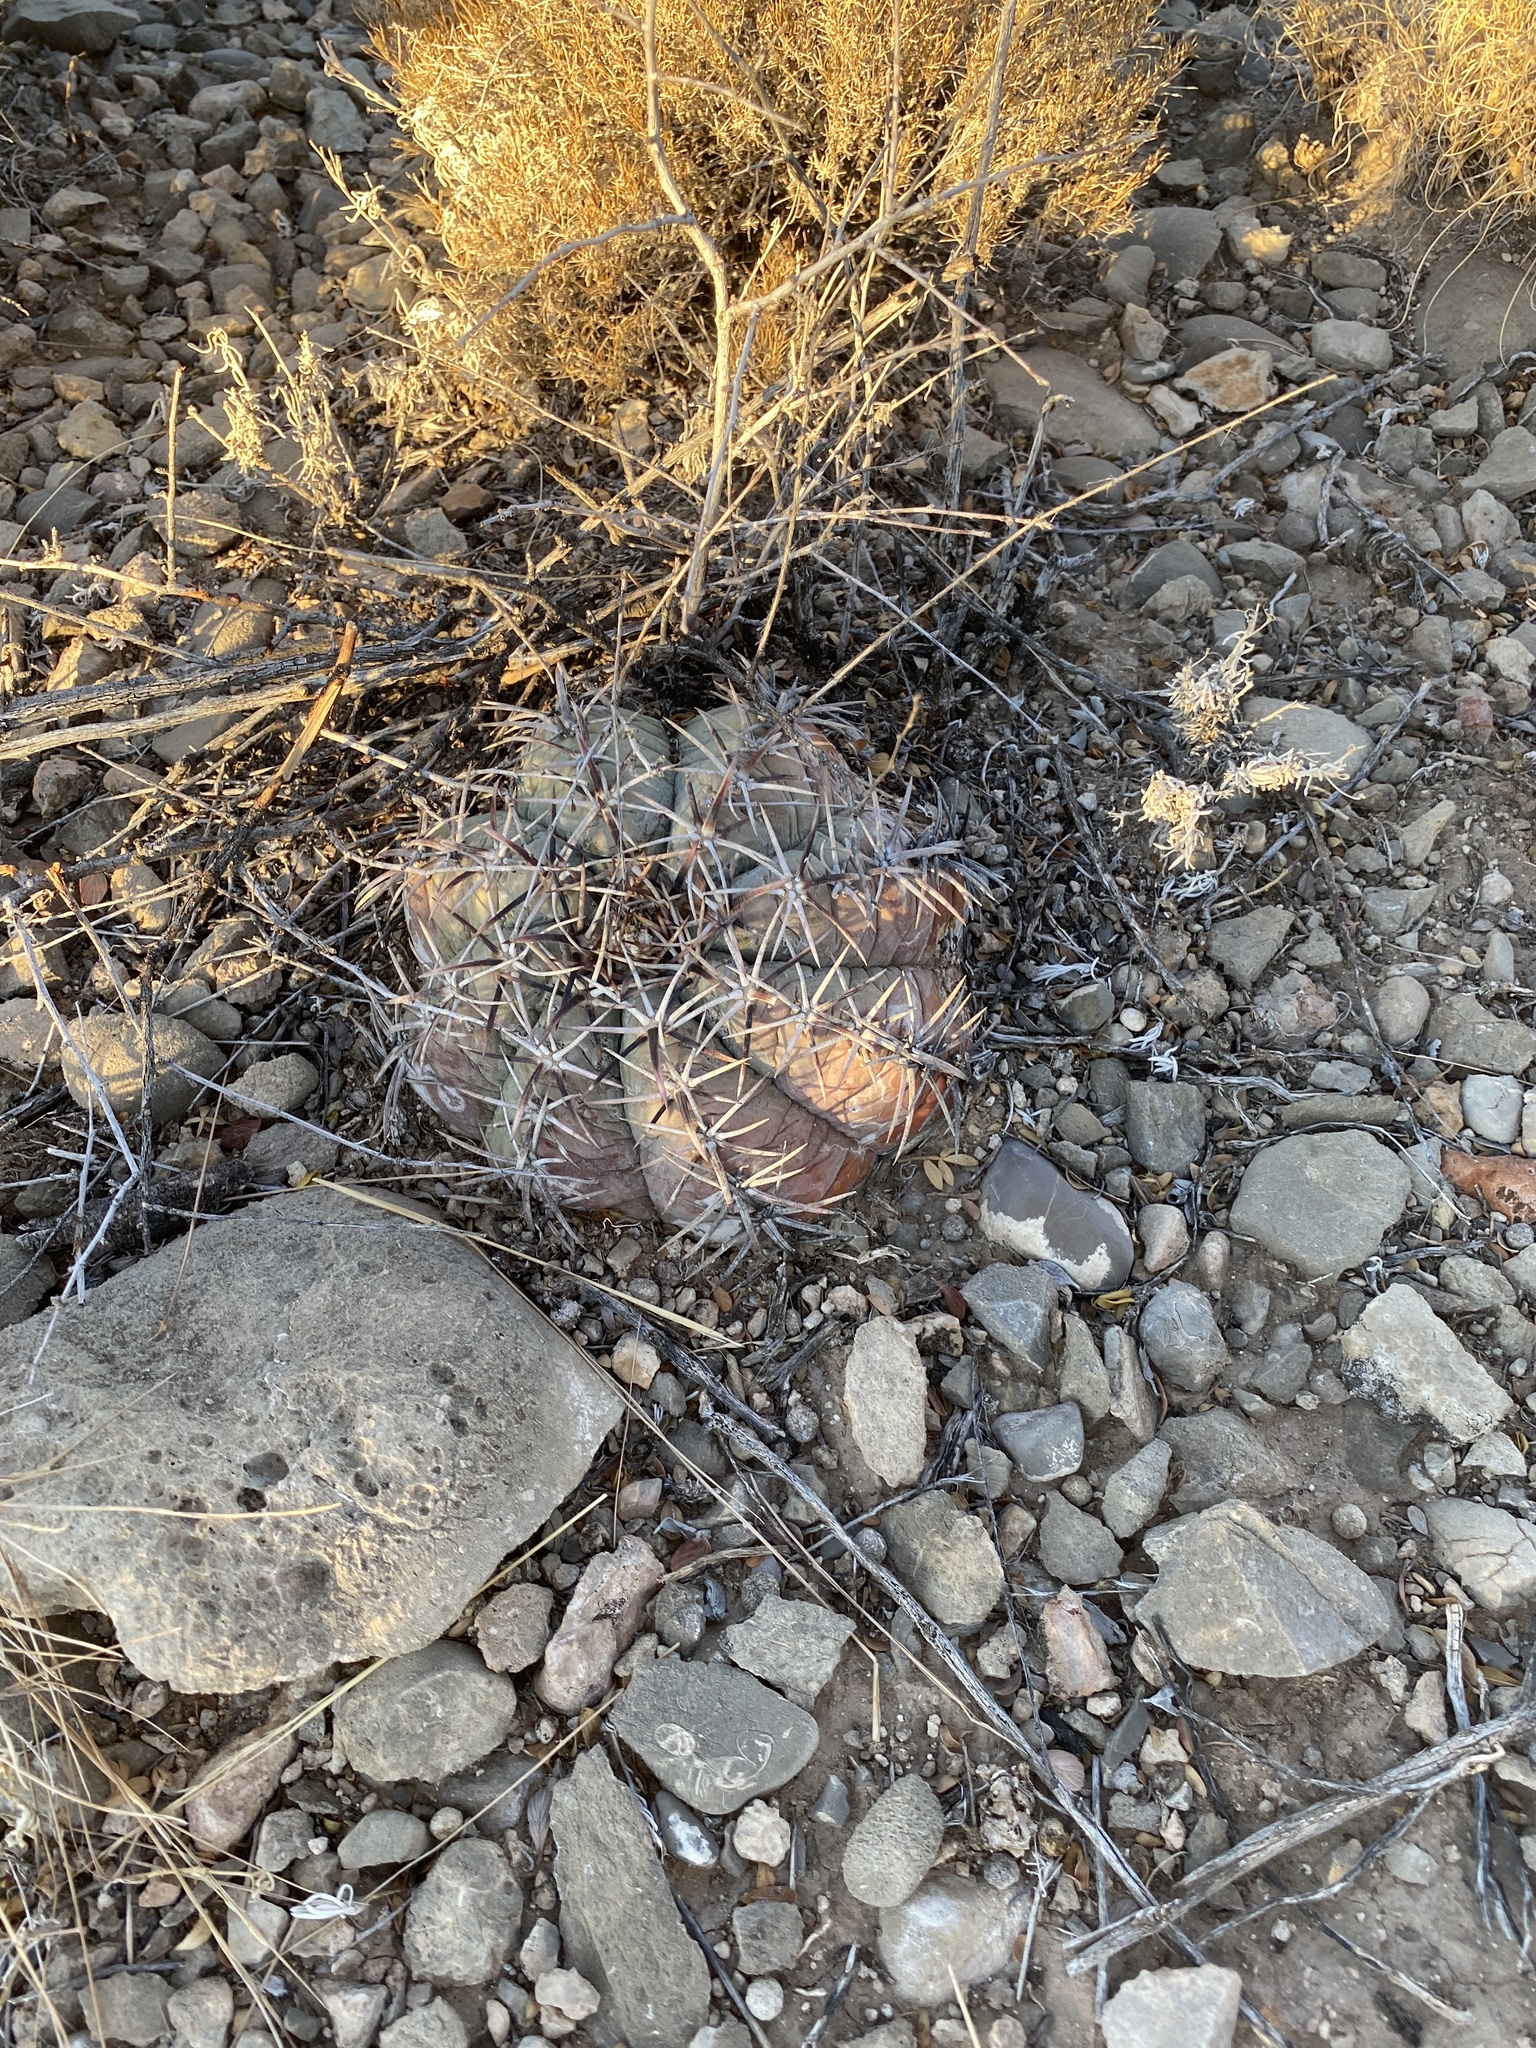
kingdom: Plantae
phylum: Tracheophyta
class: Magnoliopsida
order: Caryophyllales
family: Cactaceae
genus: Echinocactus
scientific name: Echinocactus horizonthalonius
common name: Devilshead
